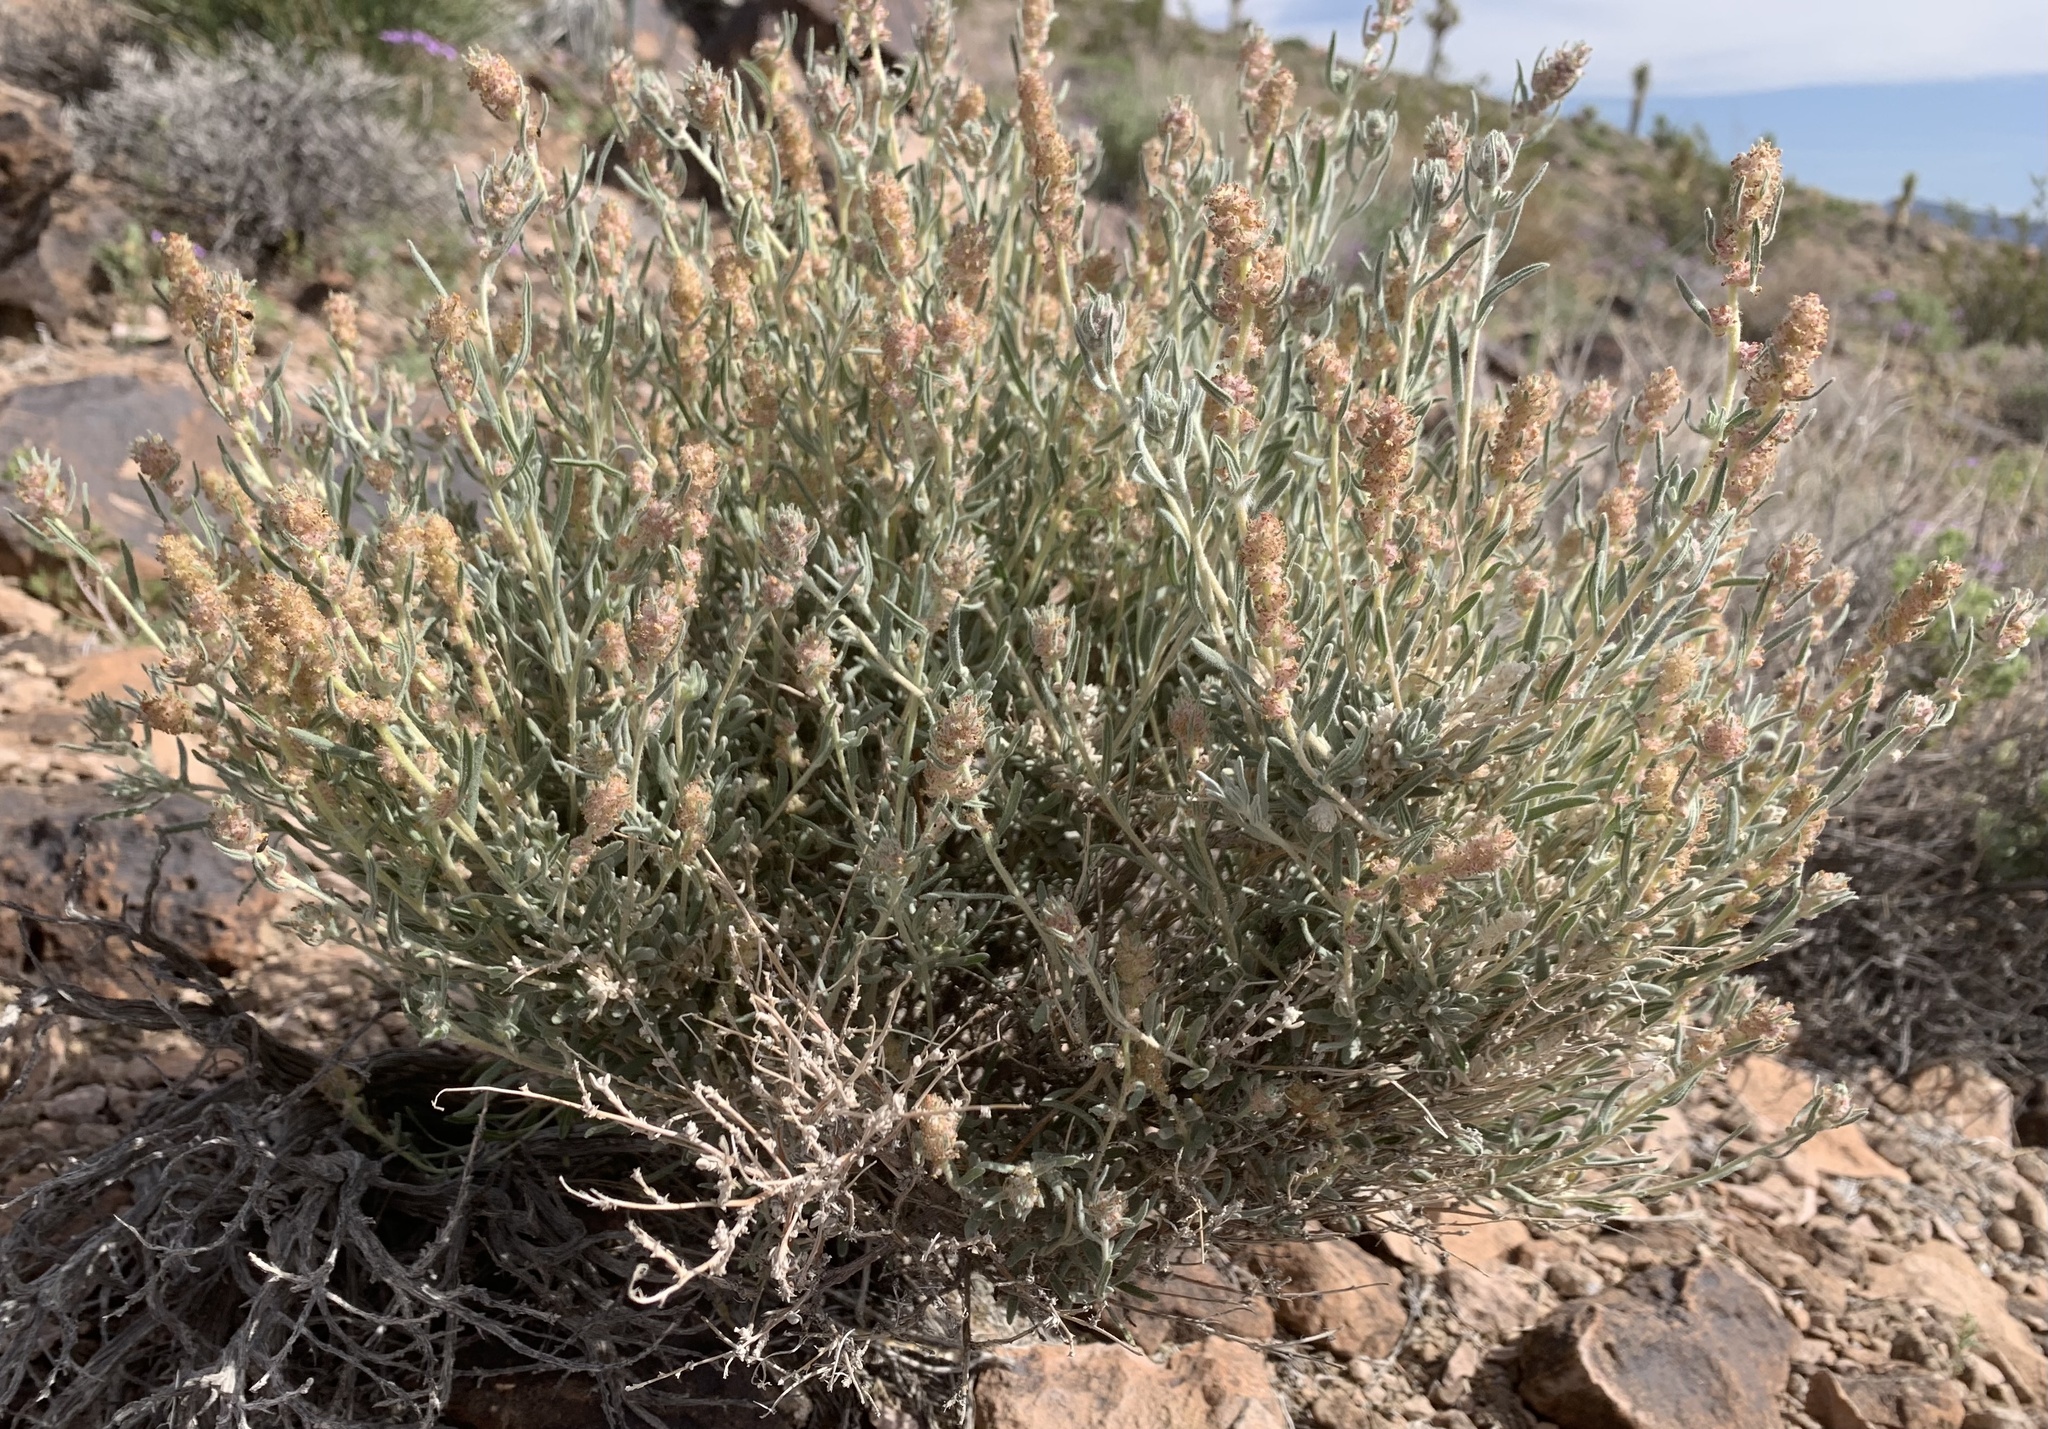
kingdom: Plantae
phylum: Tracheophyta
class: Magnoliopsida
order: Caryophyllales
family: Amaranthaceae
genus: Krascheninnikovia
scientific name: Krascheninnikovia lanata
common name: Winterfat
